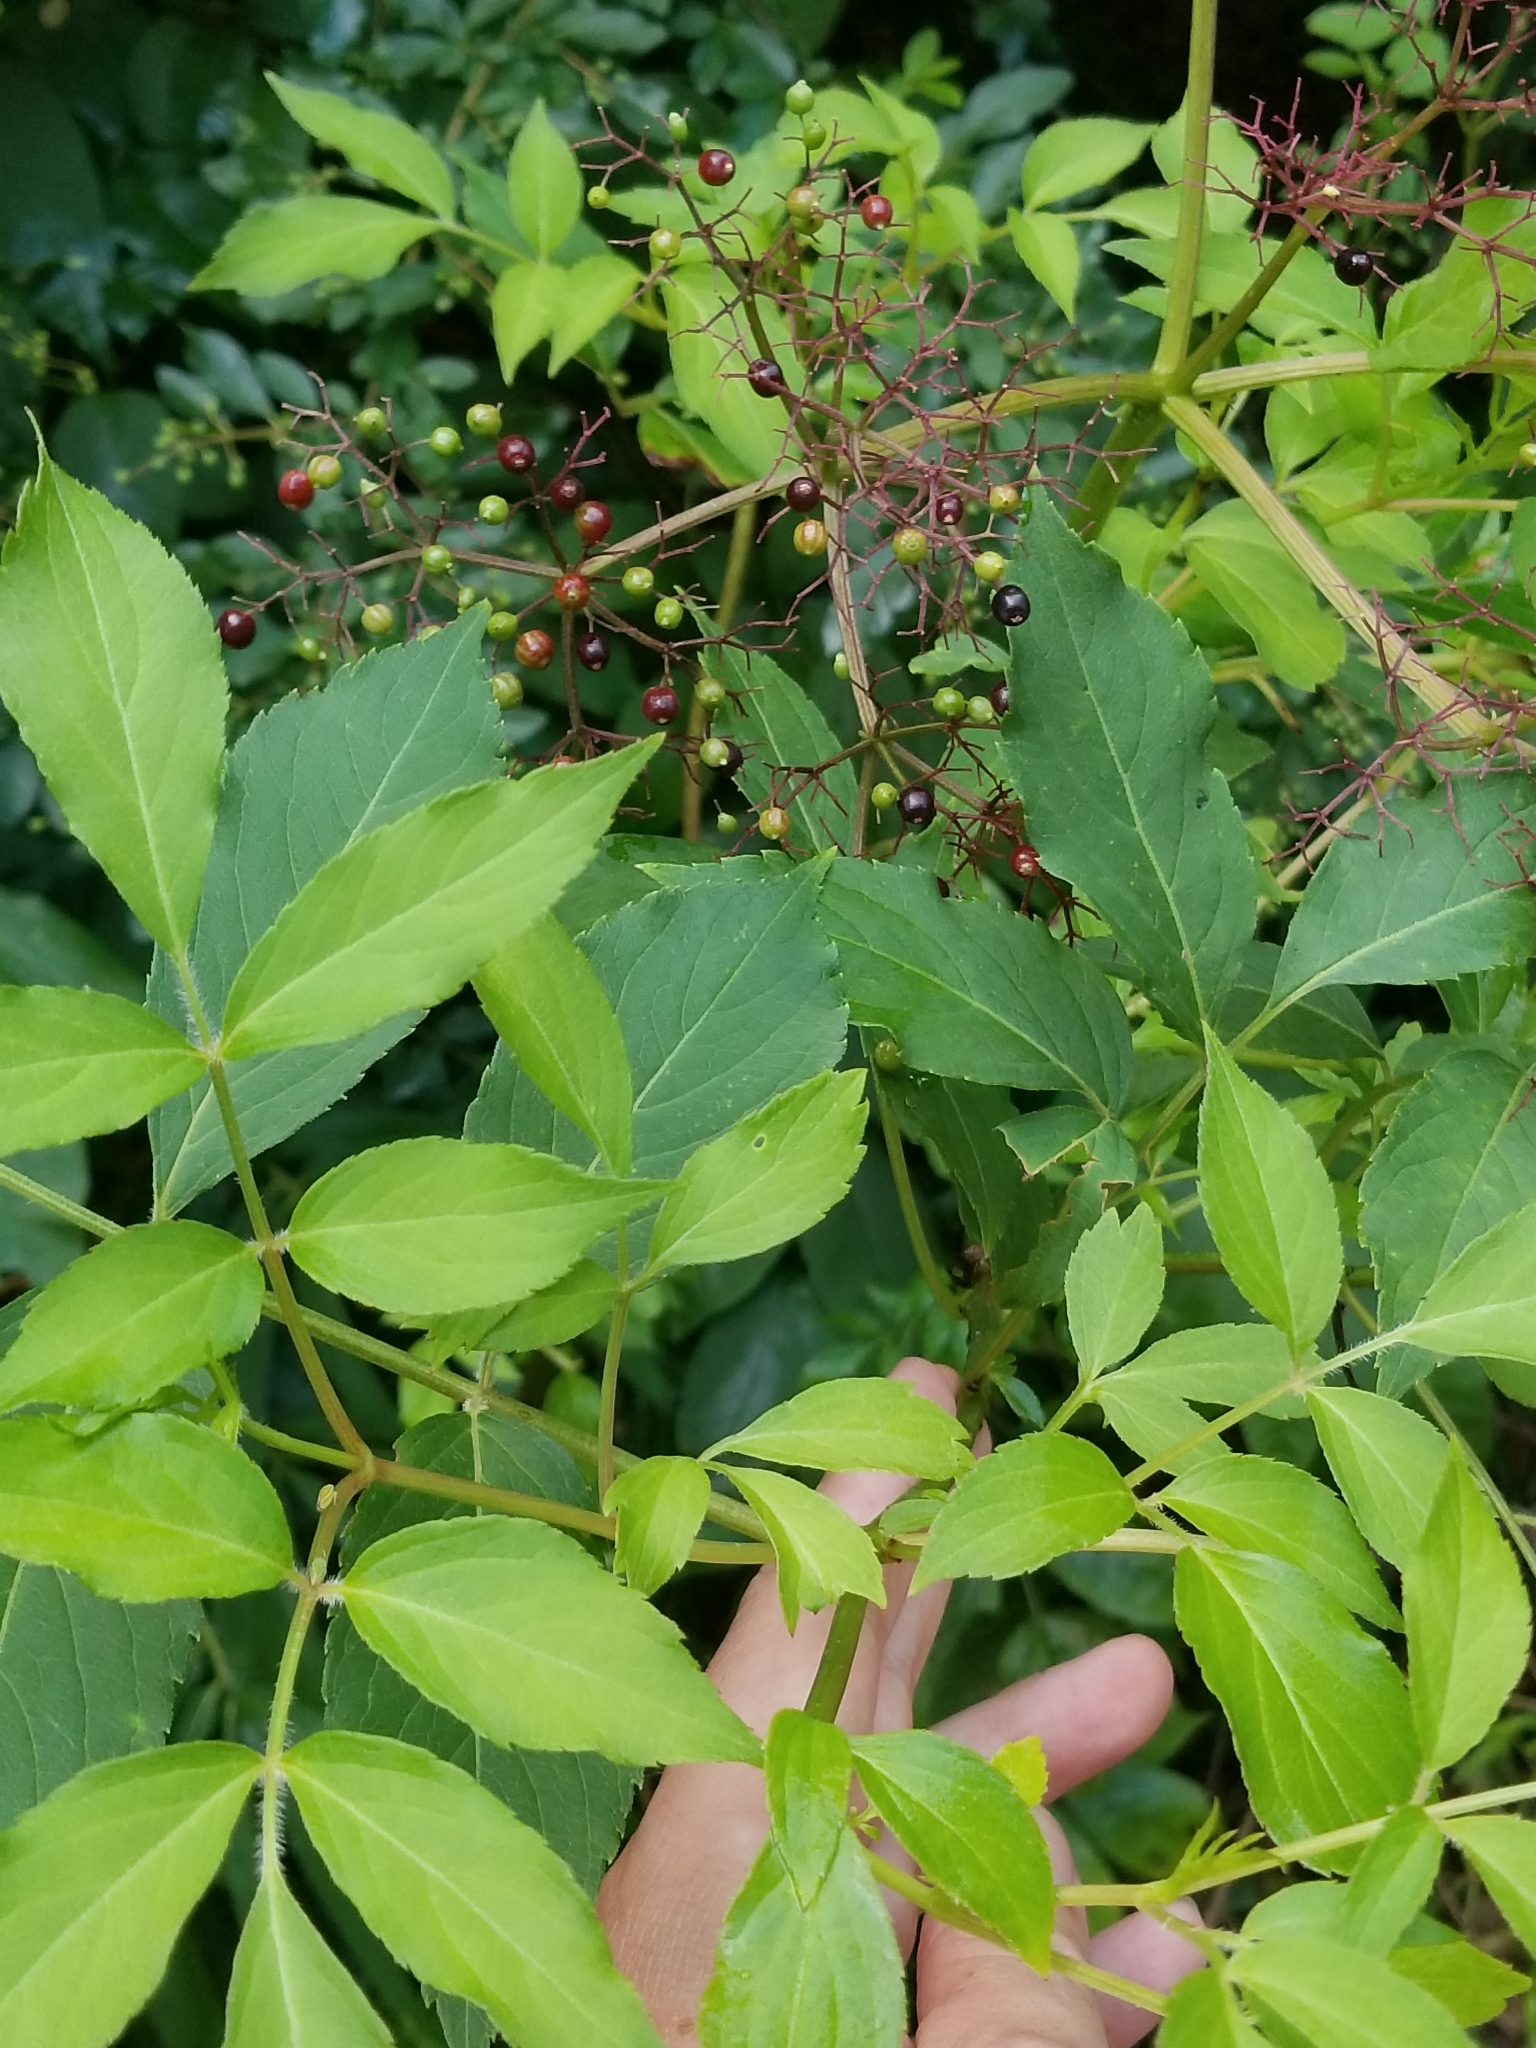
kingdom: Plantae
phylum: Tracheophyta
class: Magnoliopsida
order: Dipsacales
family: Viburnaceae
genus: Sambucus
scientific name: Sambucus canadensis
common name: American elder
